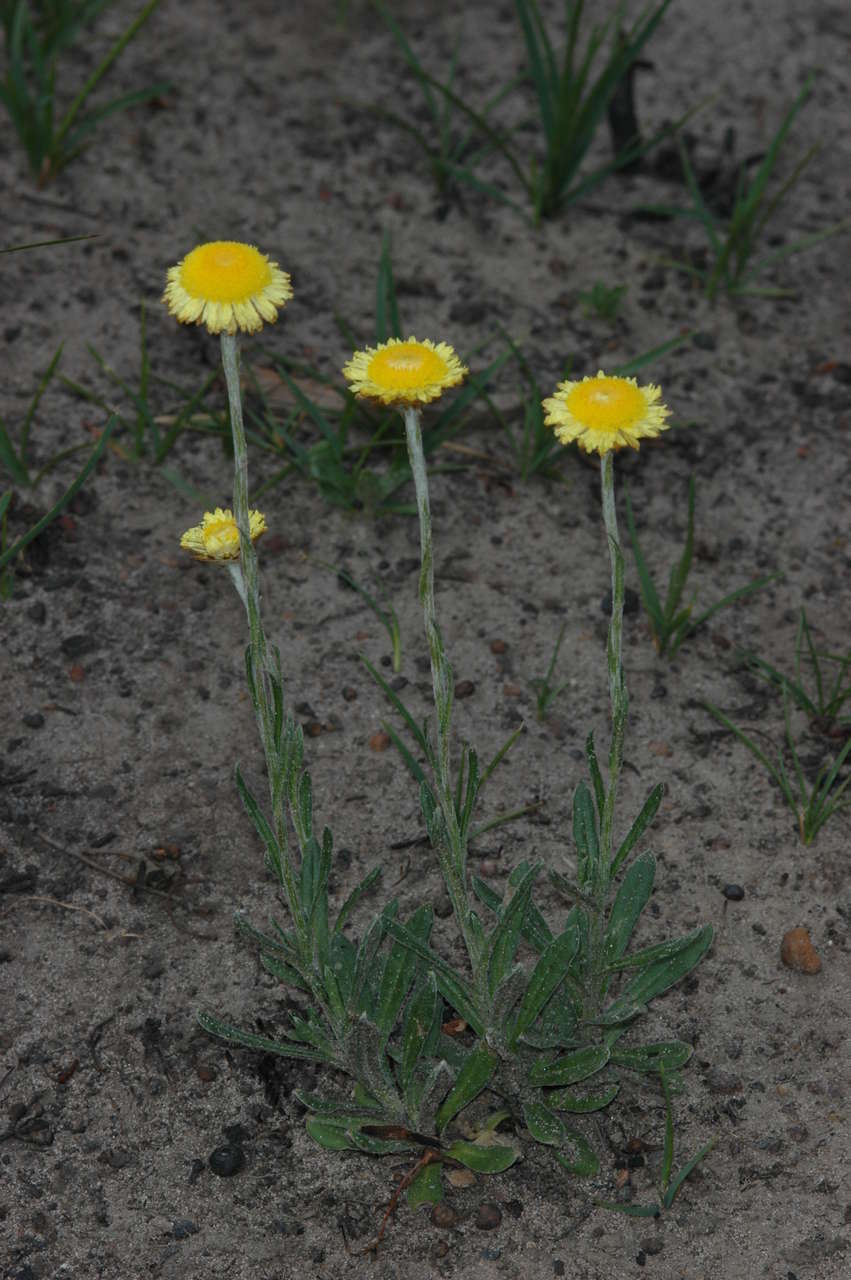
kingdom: Plantae
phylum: Tracheophyta
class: Magnoliopsida
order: Asterales
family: Asteraceae
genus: Coronidium
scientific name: Coronidium scorpioides
